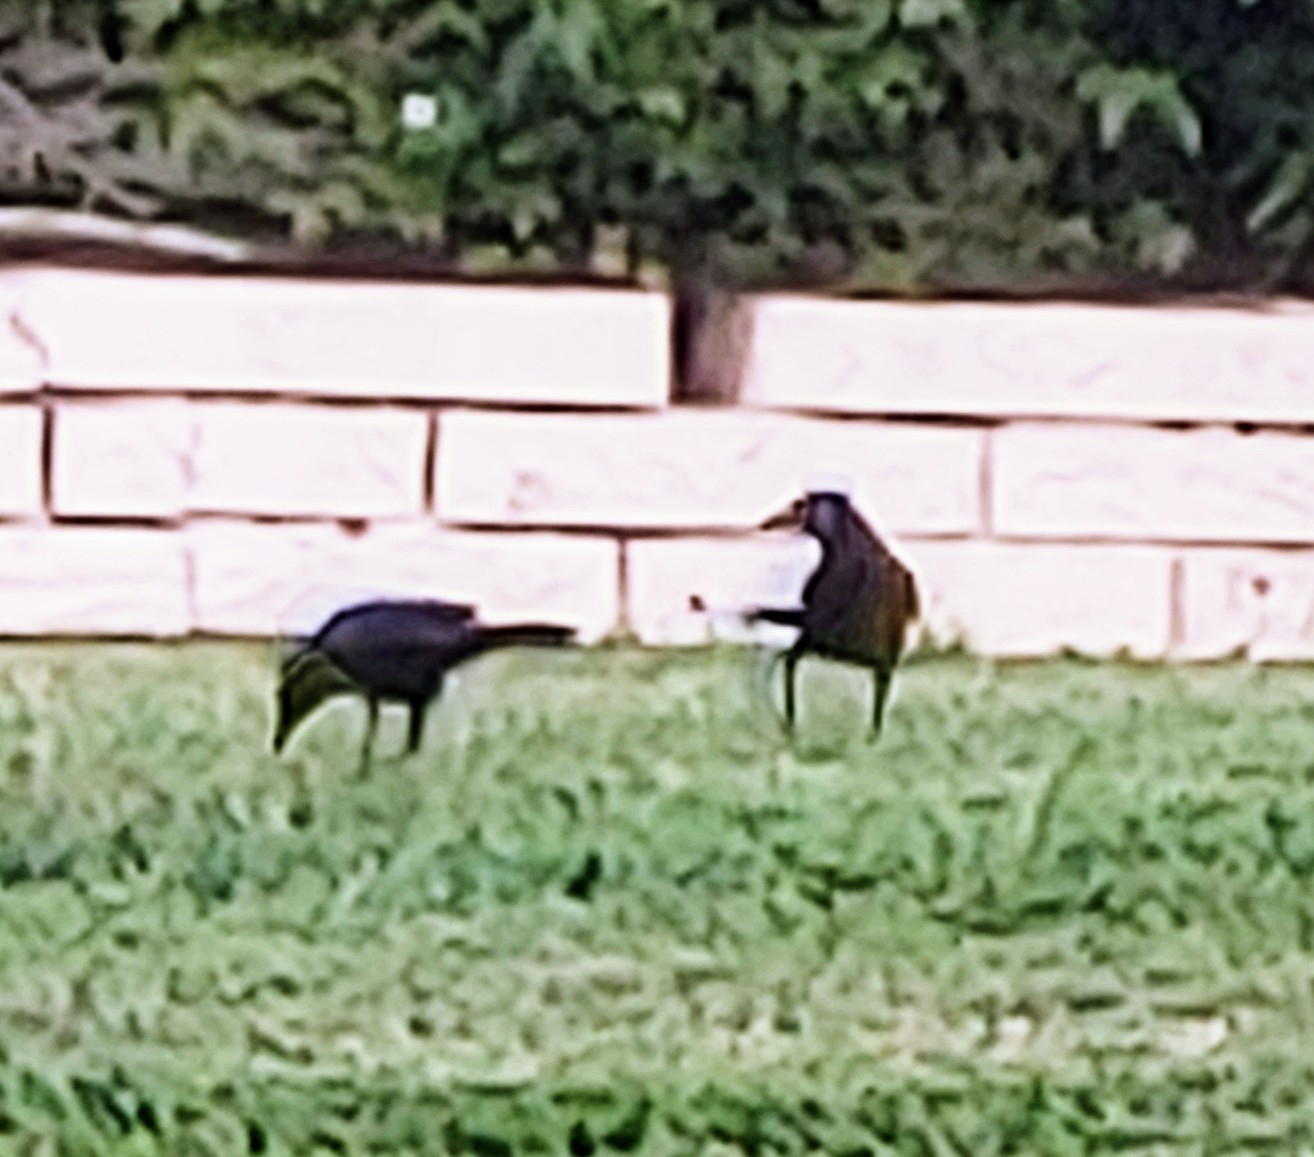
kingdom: Animalia
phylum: Chordata
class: Aves
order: Passeriformes
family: Icteridae
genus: Quiscalus
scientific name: Quiscalus quiscula
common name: Common grackle
